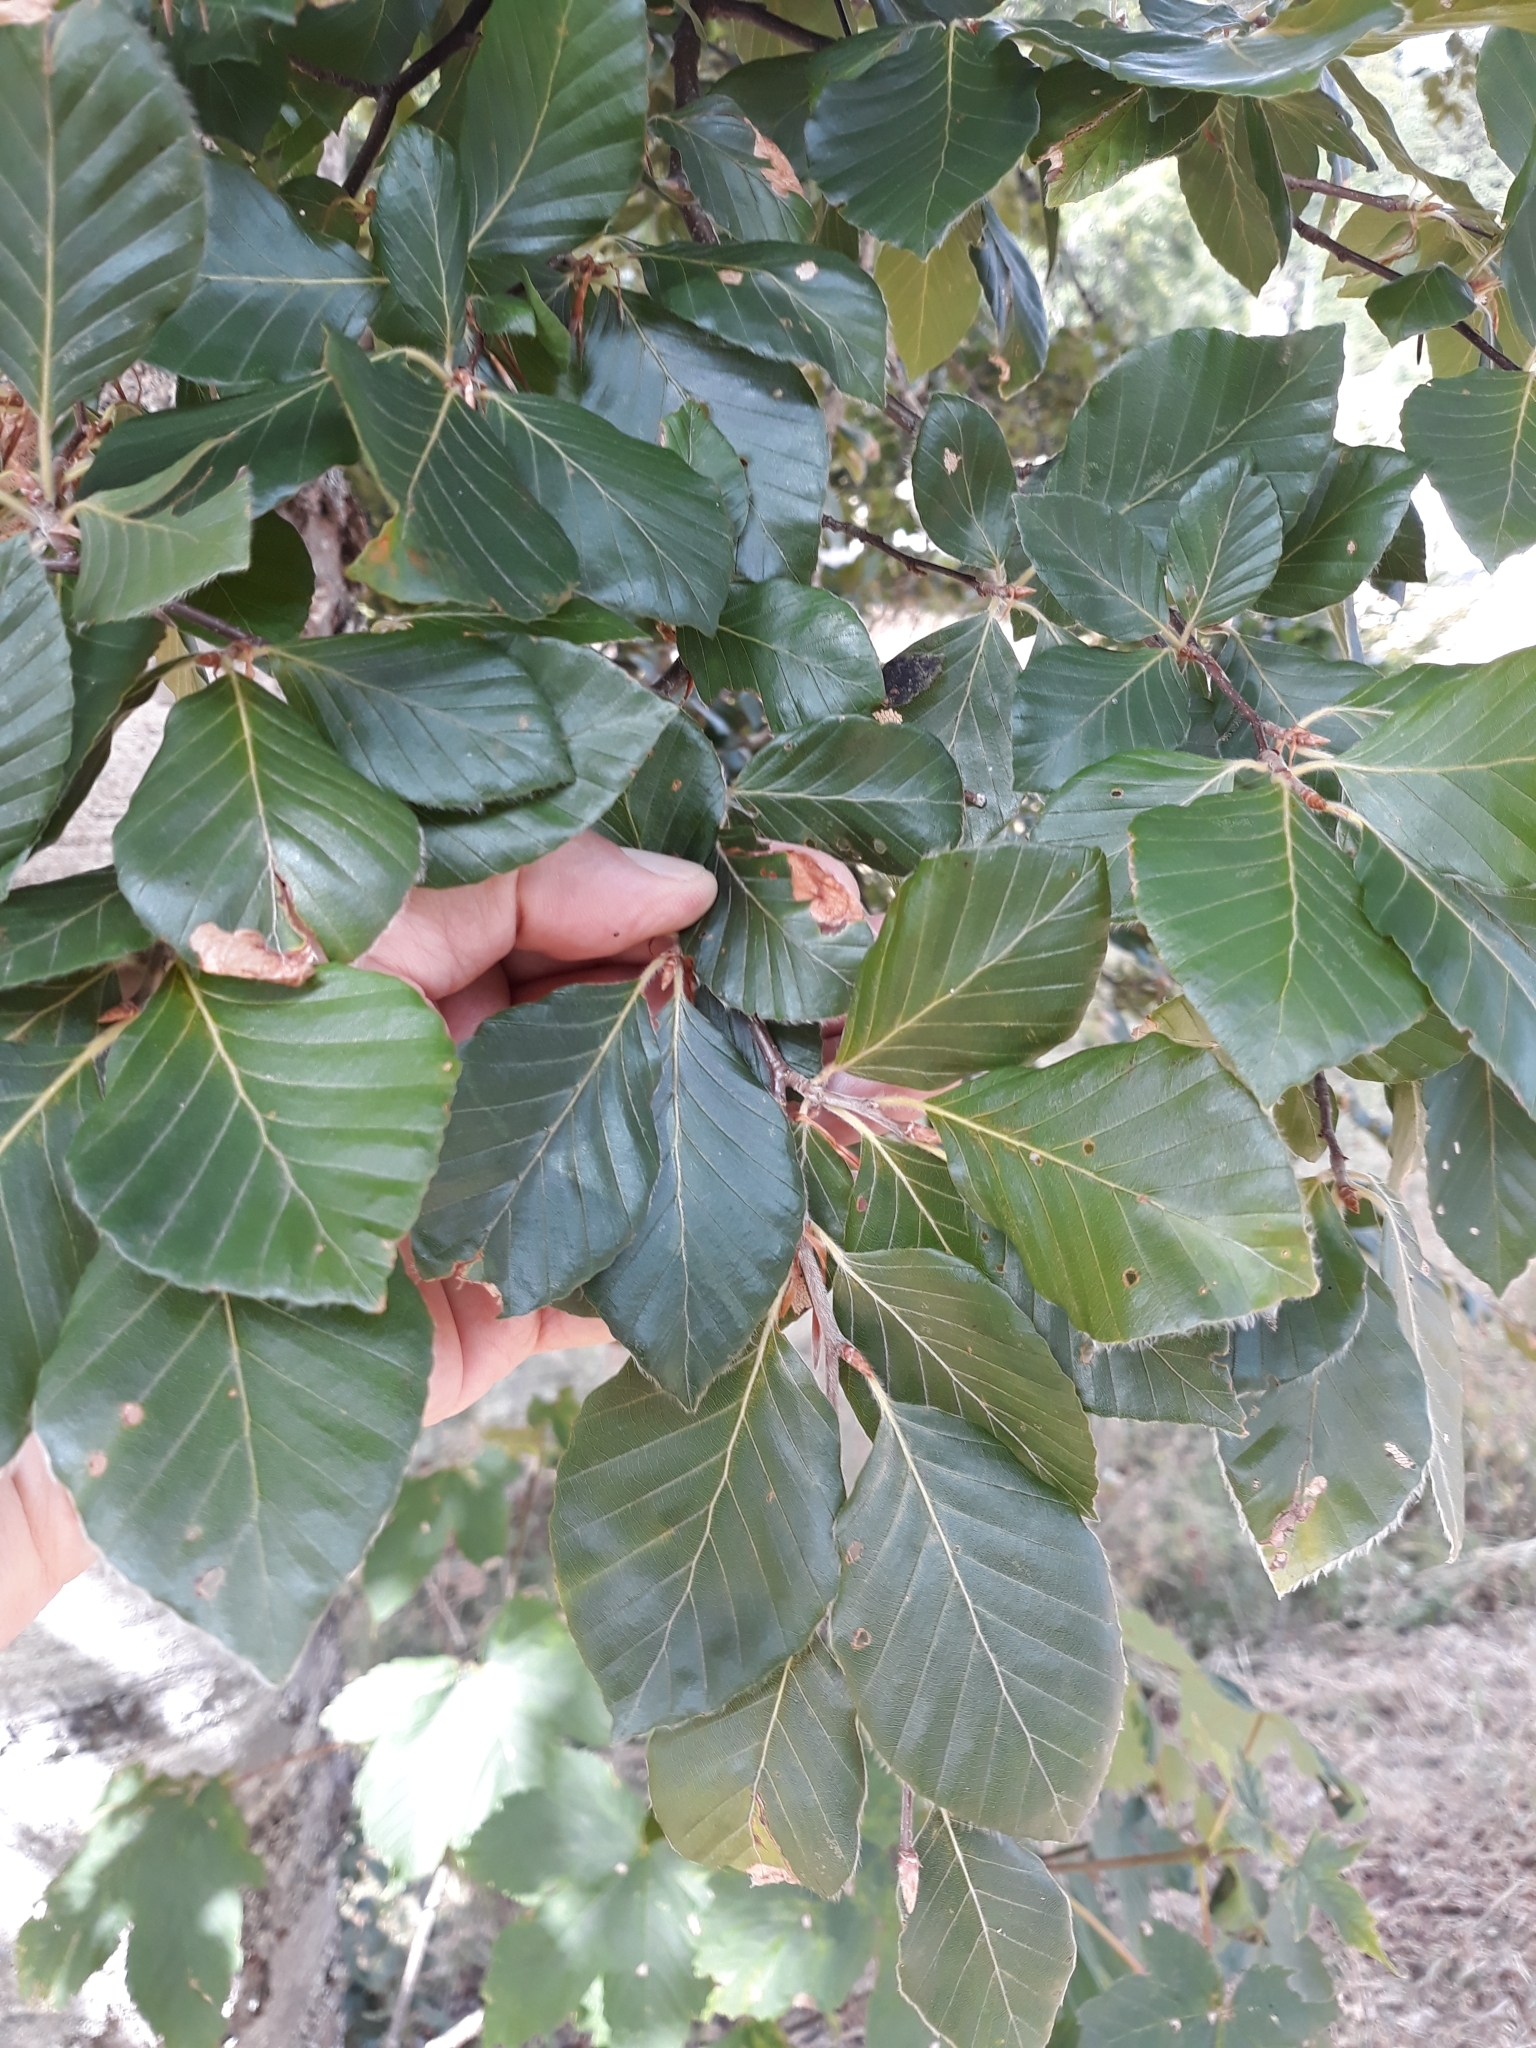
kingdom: Plantae
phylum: Tracheophyta
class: Magnoliopsida
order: Fagales
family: Fagaceae
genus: Fagus
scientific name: Fagus sylvatica
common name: Beech
